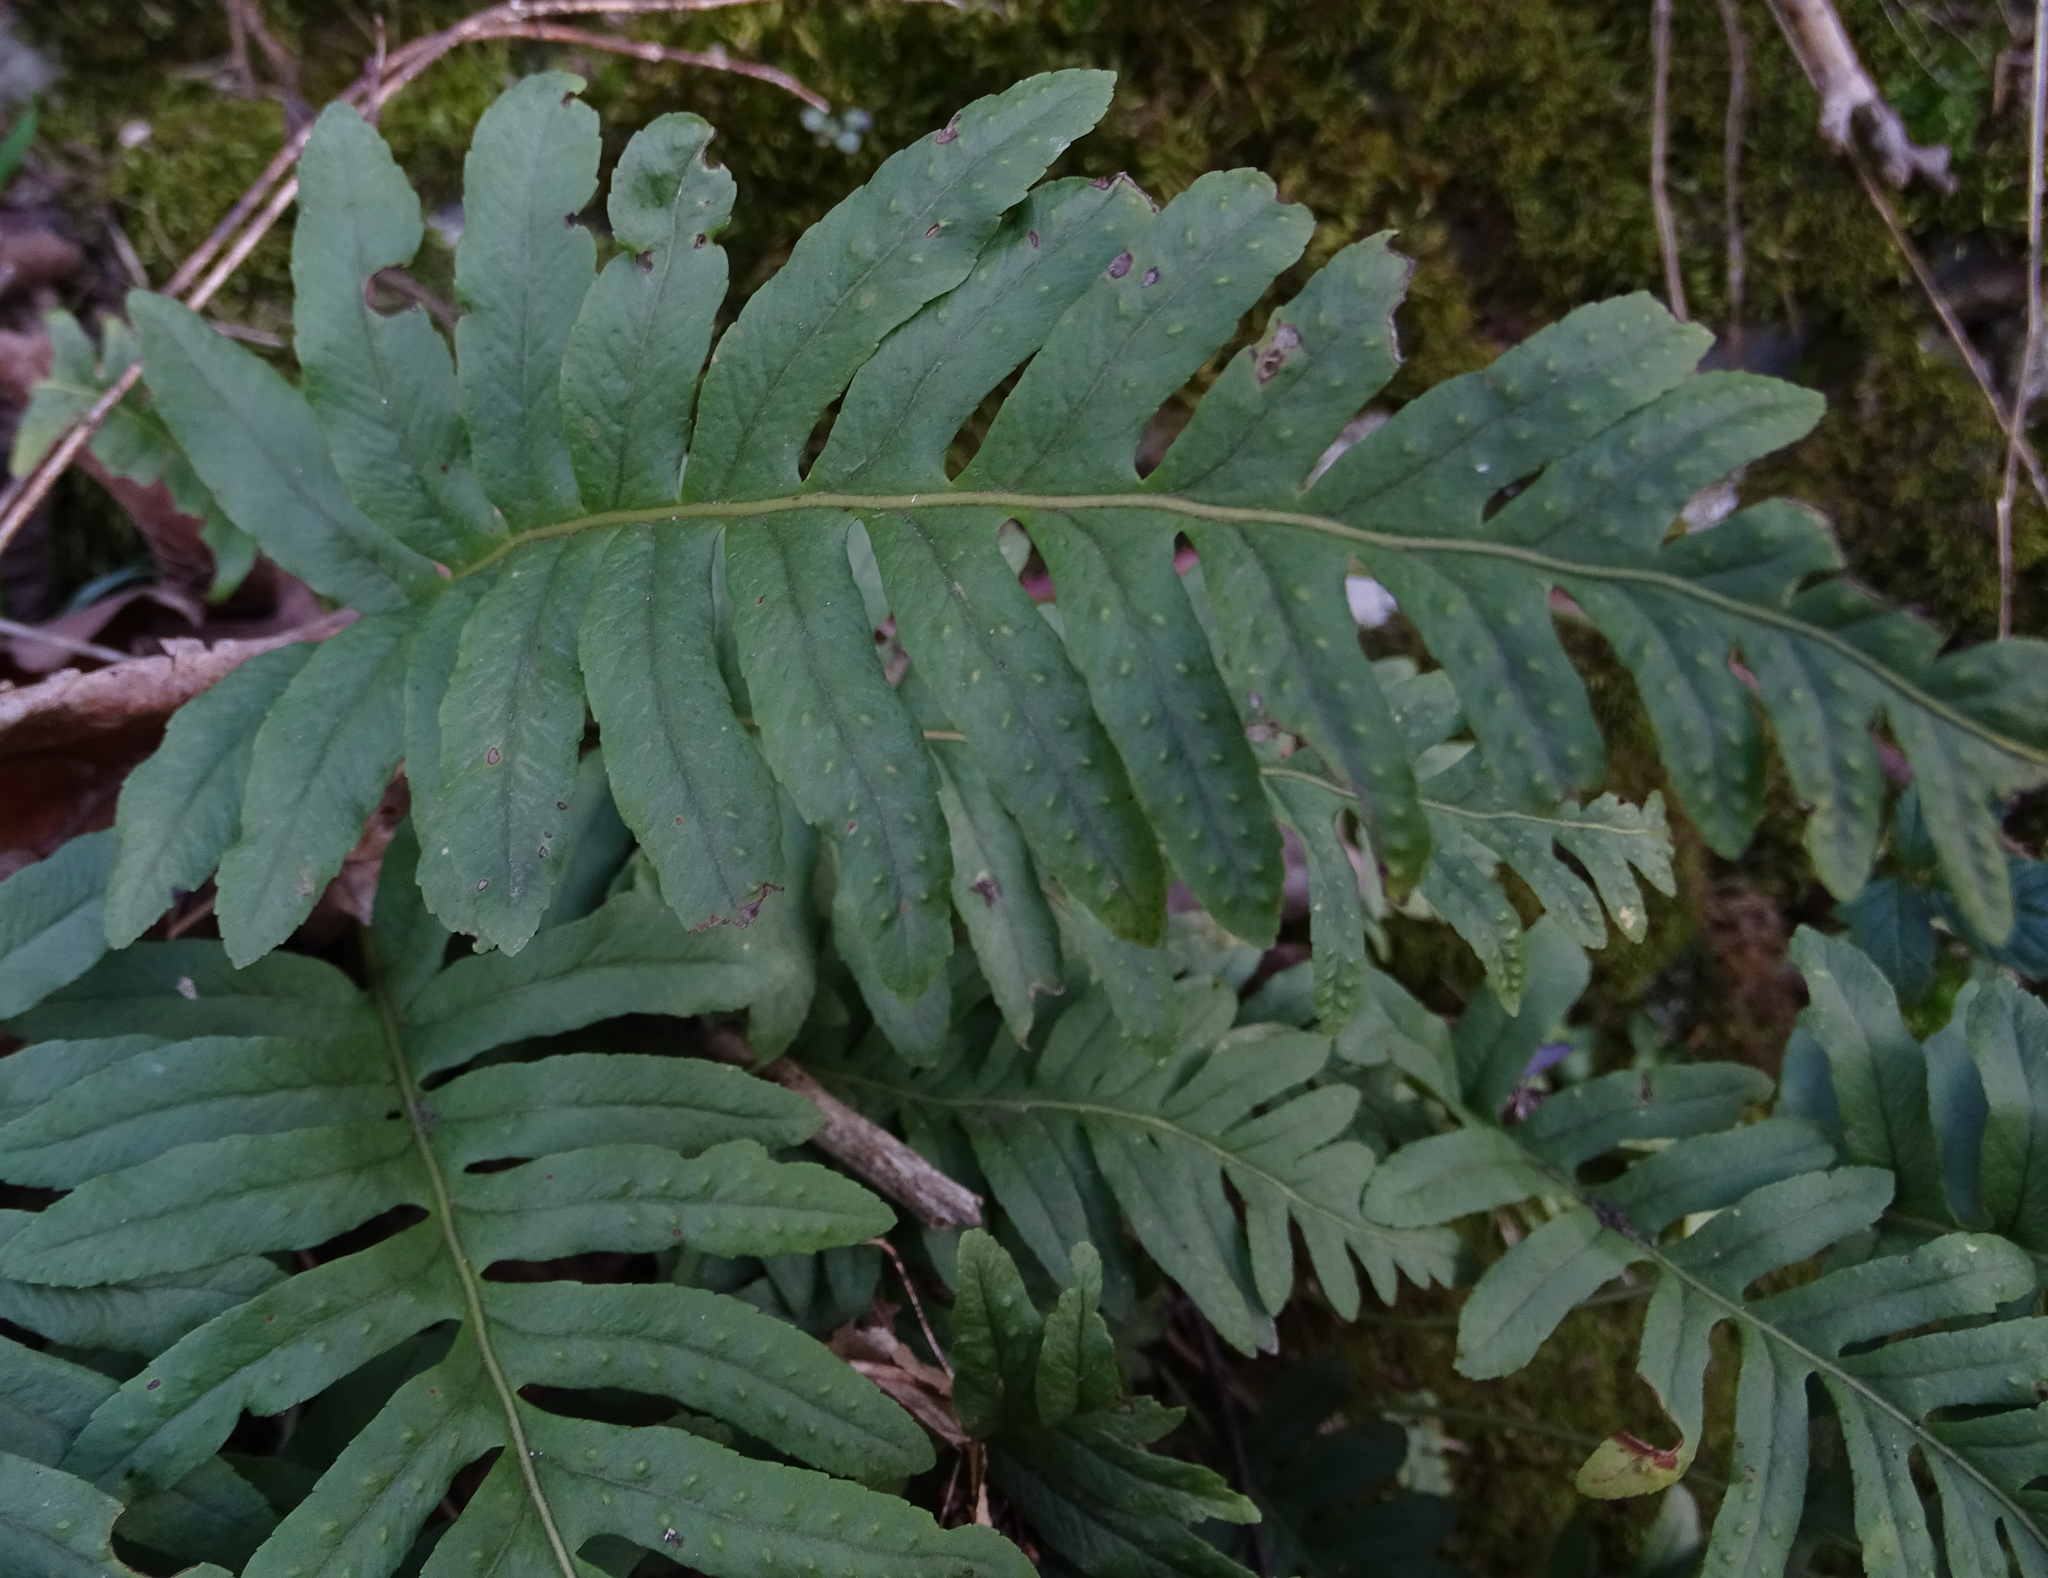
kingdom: Plantae
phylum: Tracheophyta
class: Polypodiopsida
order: Polypodiales
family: Polypodiaceae
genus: Polypodium
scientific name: Polypodium vulgare
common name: Common polypody
